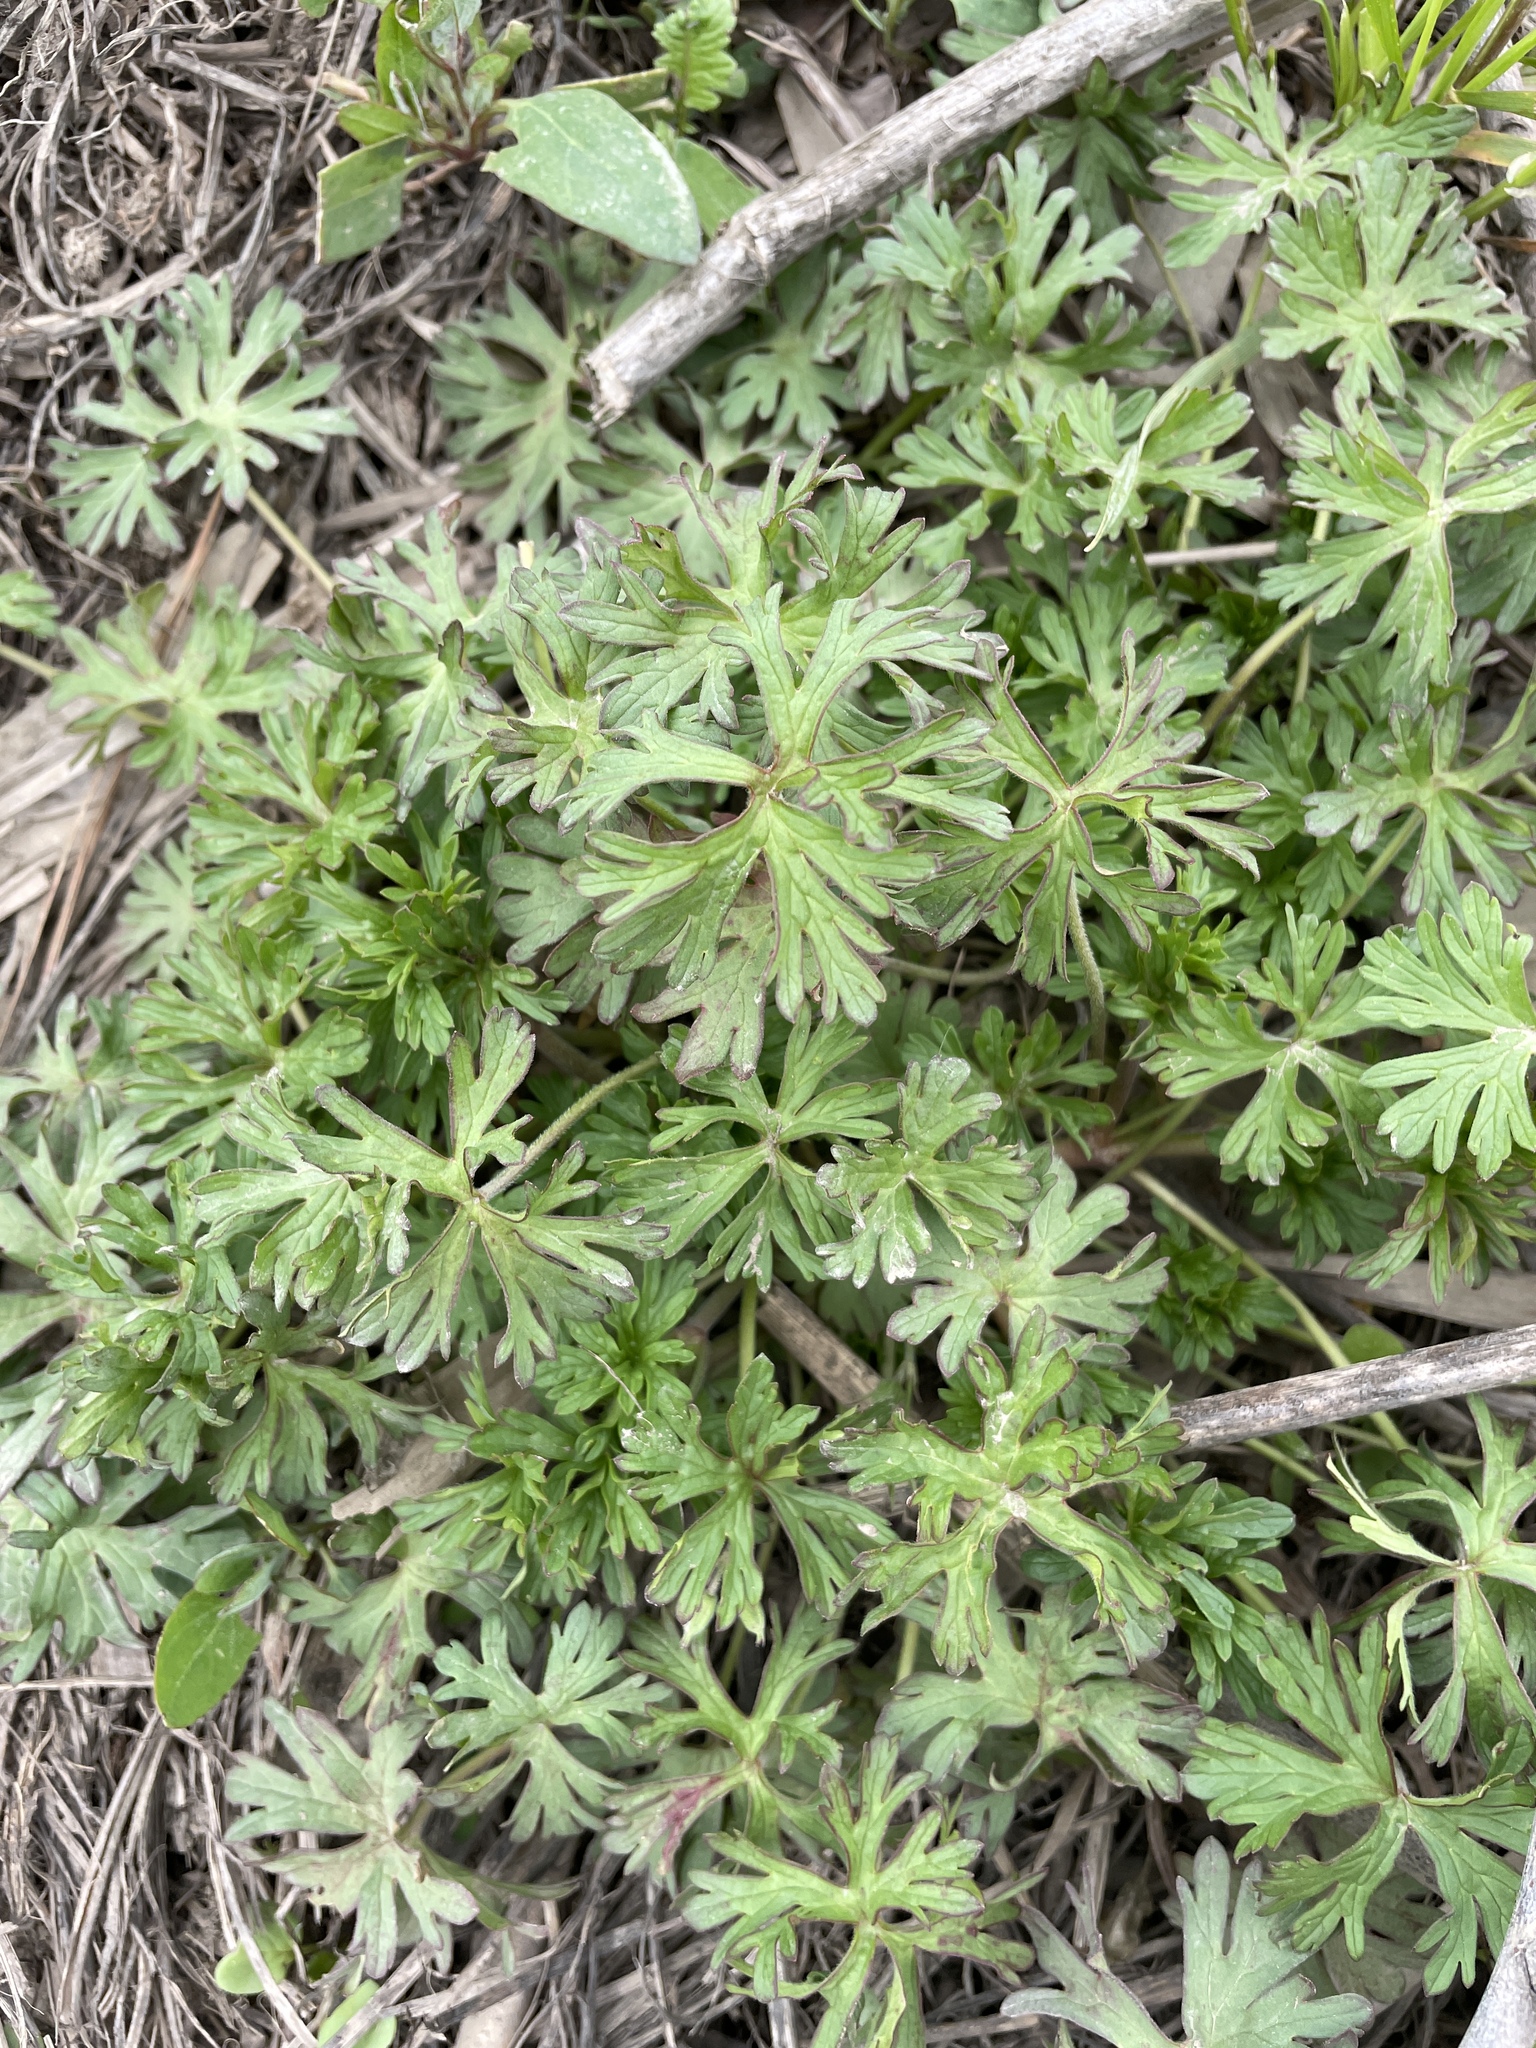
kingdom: Plantae
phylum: Tracheophyta
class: Magnoliopsida
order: Geraniales
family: Geraniaceae
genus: Geranium
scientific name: Geranium
